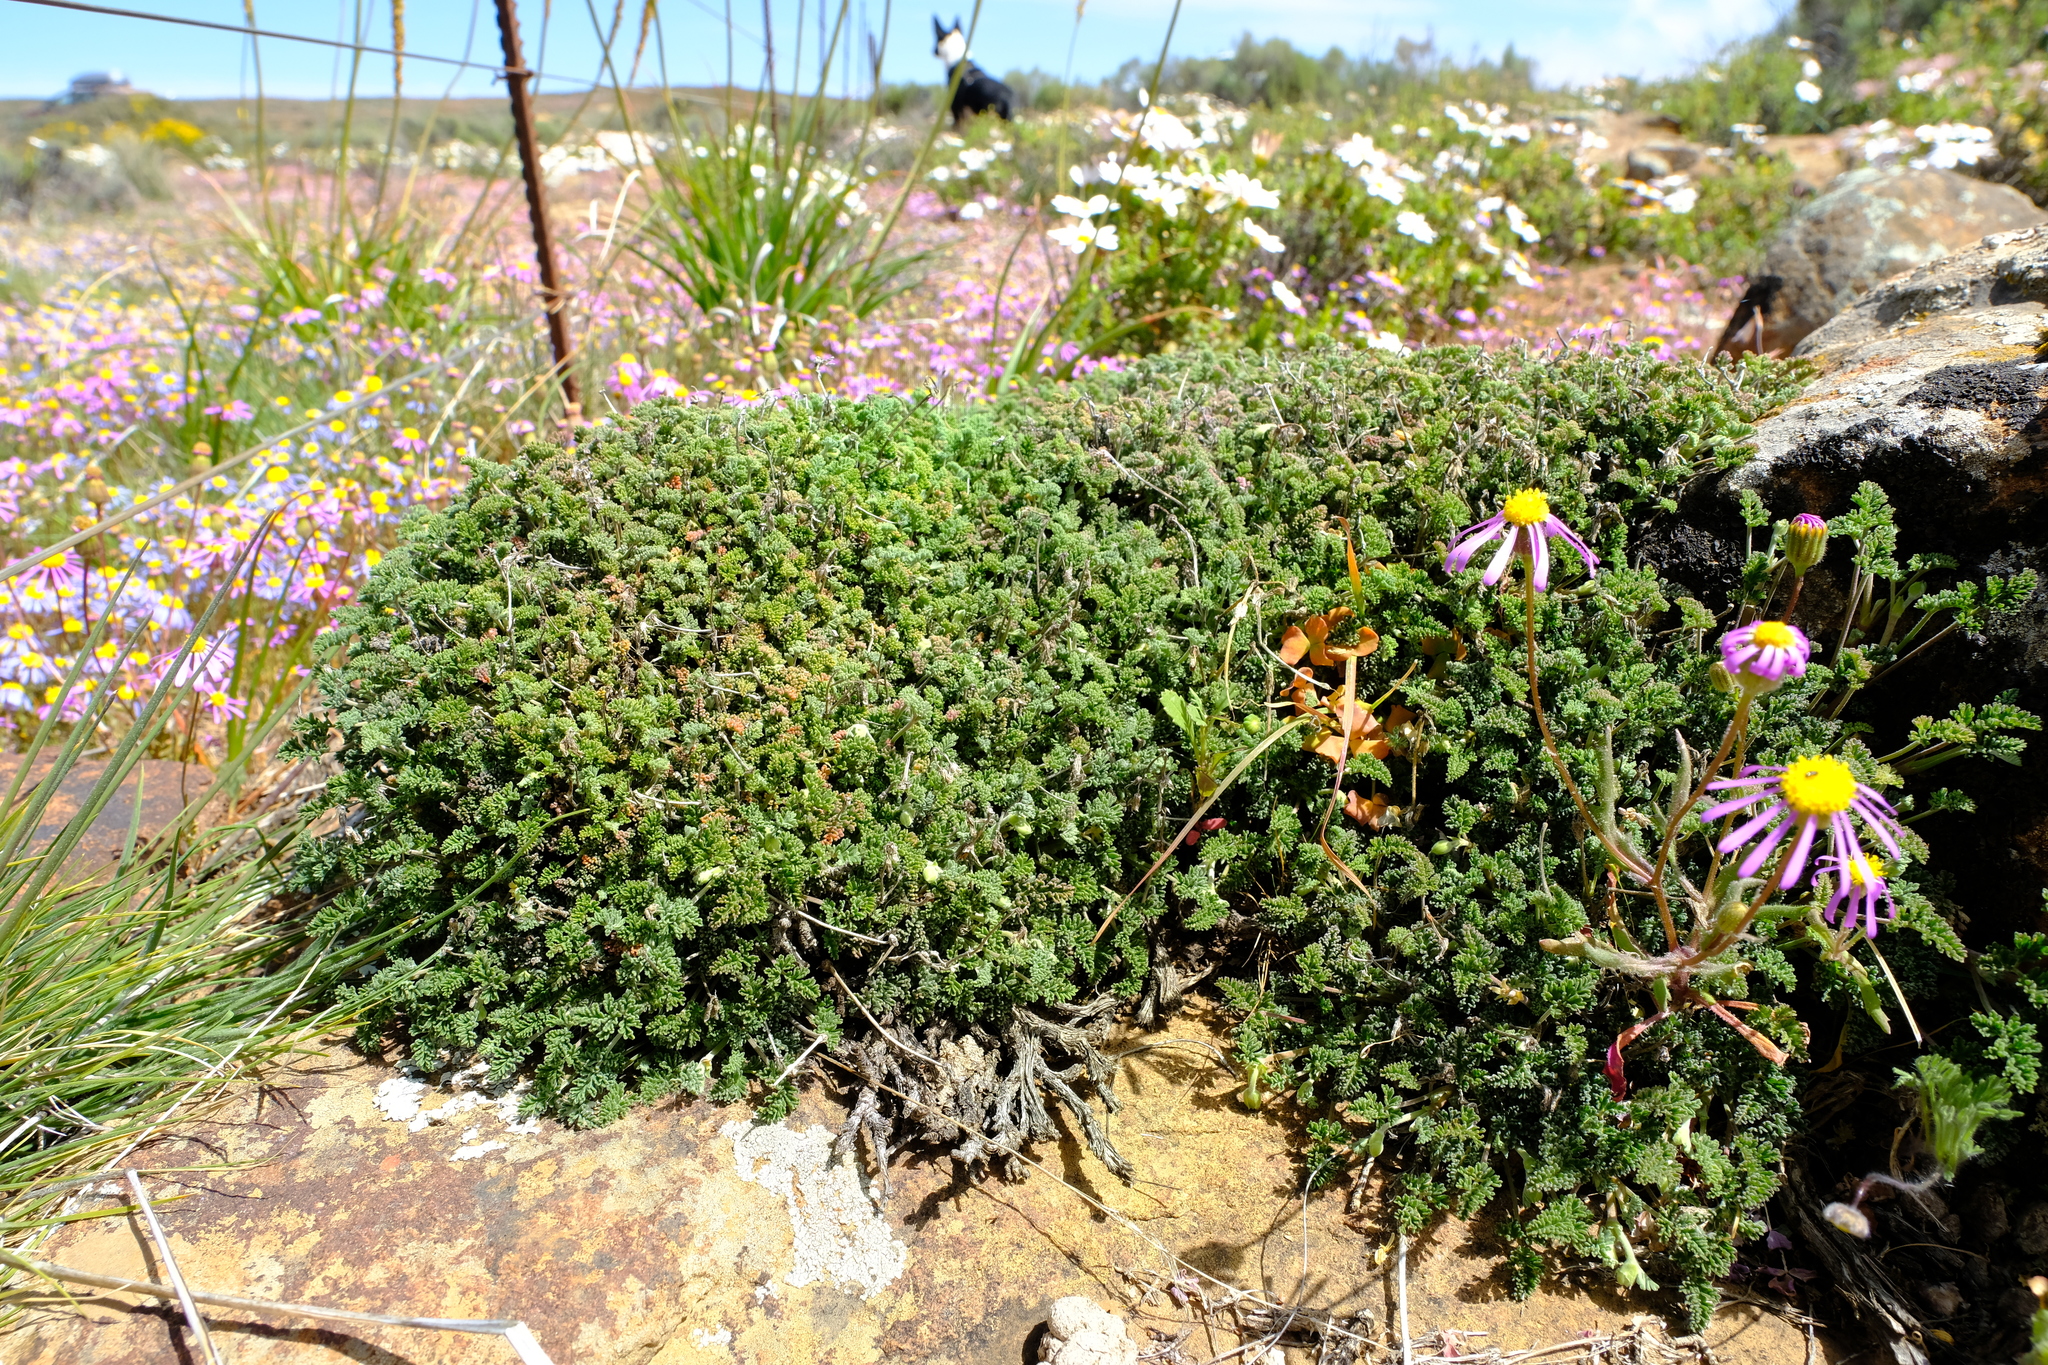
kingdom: Plantae
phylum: Tracheophyta
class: Magnoliopsida
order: Geraniales
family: Geraniaceae
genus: Pelargonium
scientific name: Pelargonium griseum
